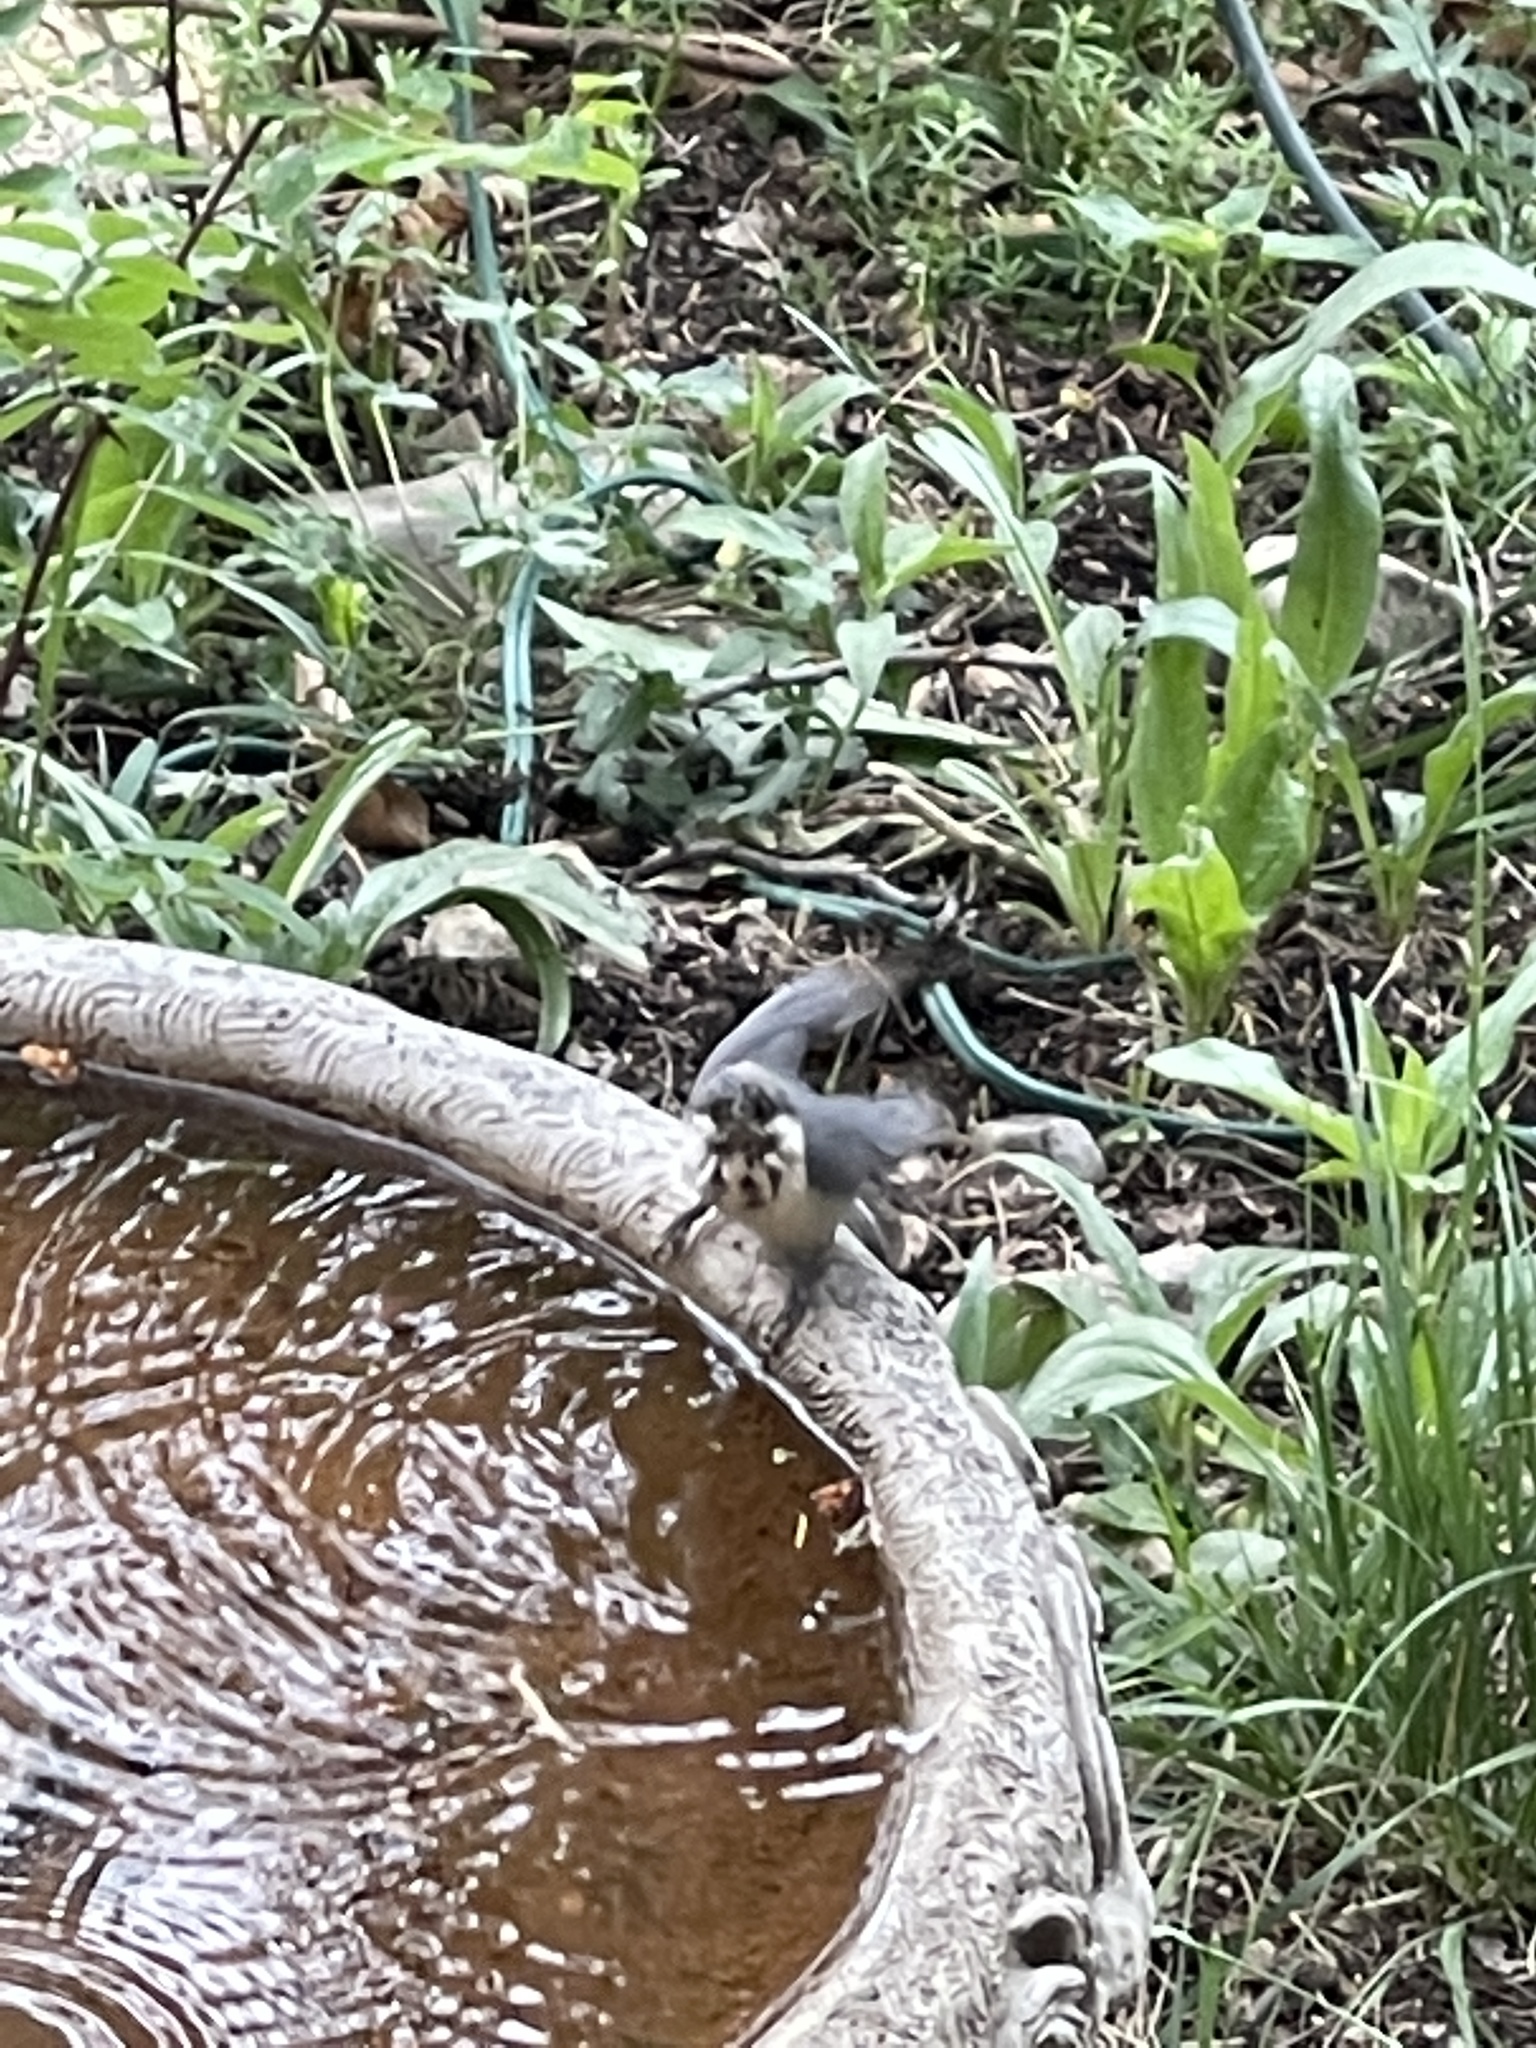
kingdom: Animalia
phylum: Chordata
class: Aves
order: Passeriformes
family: Sittidae
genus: Sitta
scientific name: Sitta pygmaea
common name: Pygmy nuthatch
